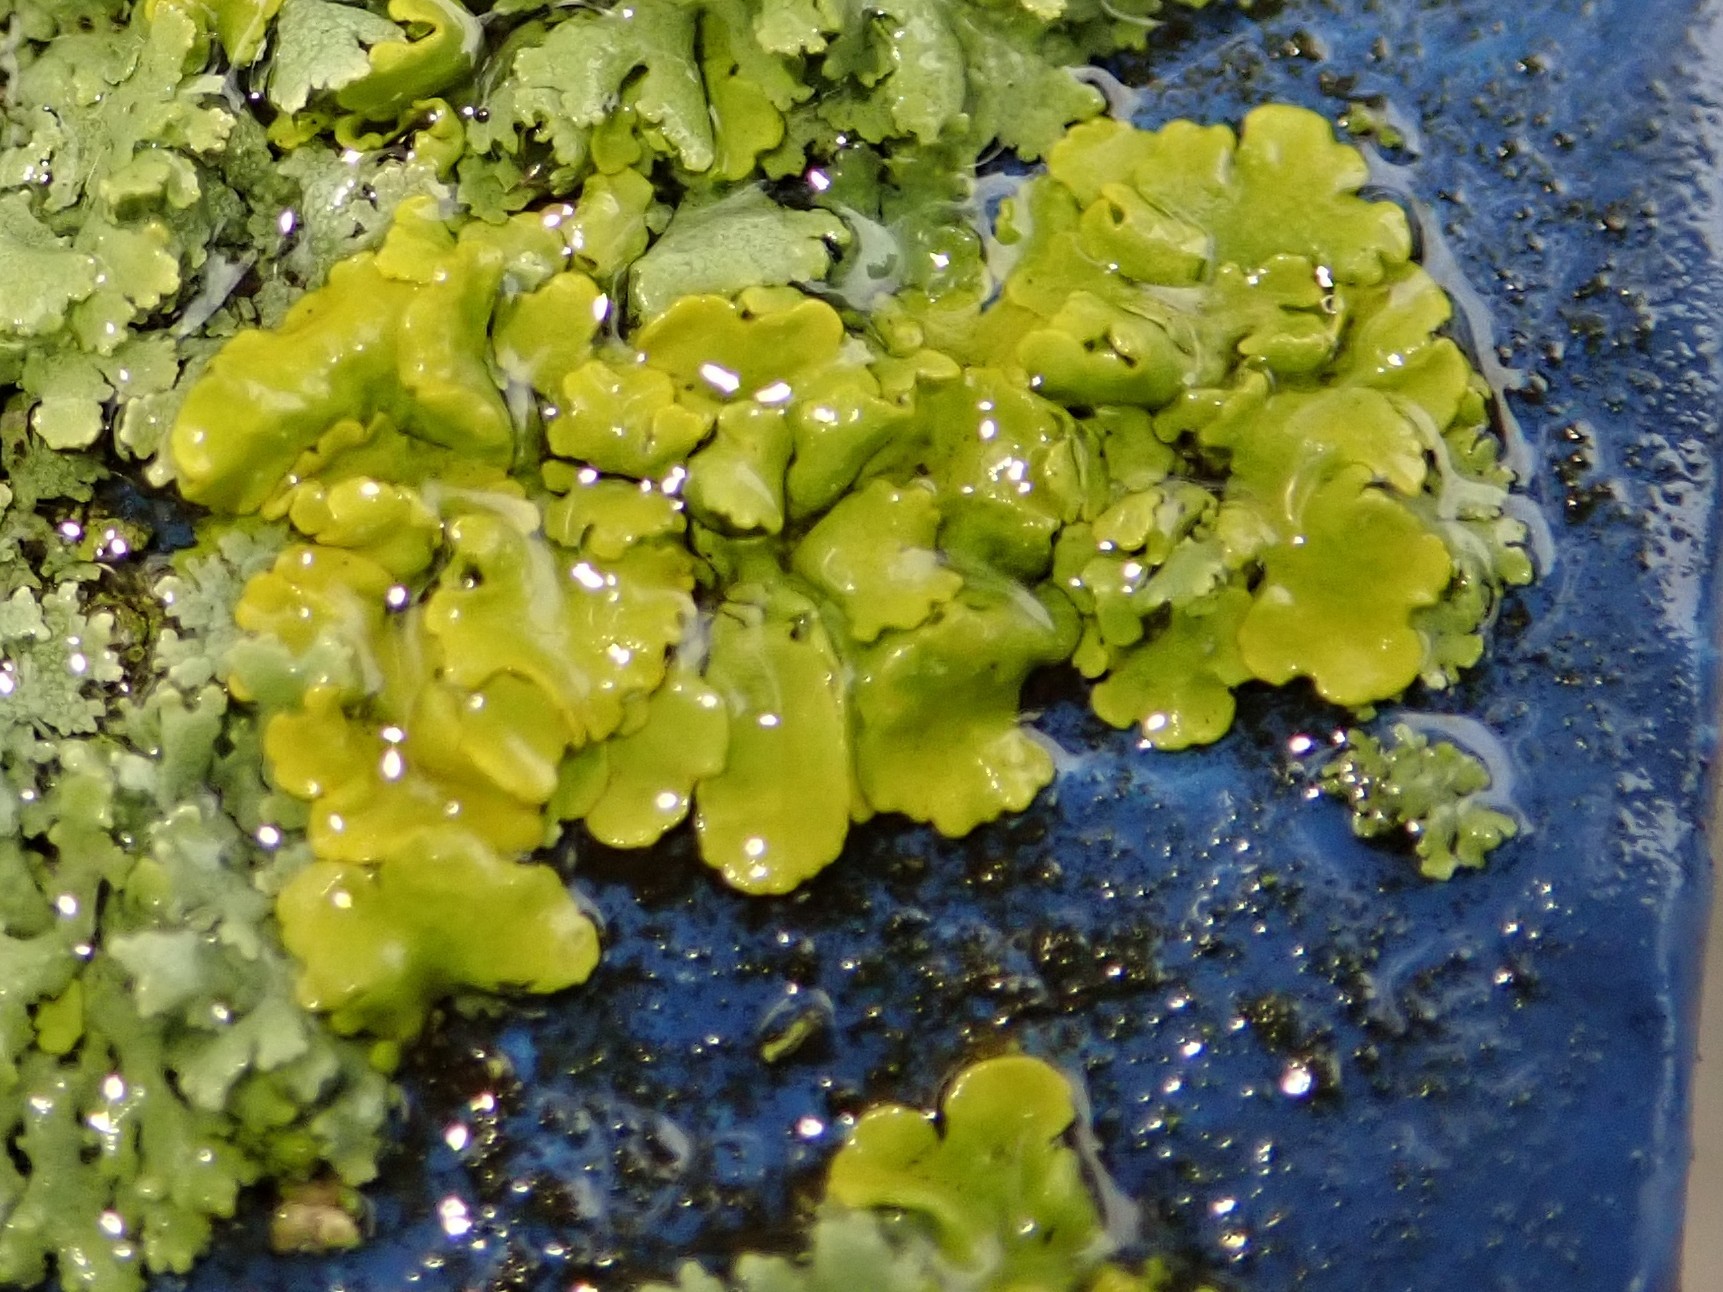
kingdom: Fungi
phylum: Ascomycota
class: Lecanoromycetes
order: Teloschistales
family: Teloschistaceae
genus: Xanthoria
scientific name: Xanthoria parietina
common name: Common orange lichen
